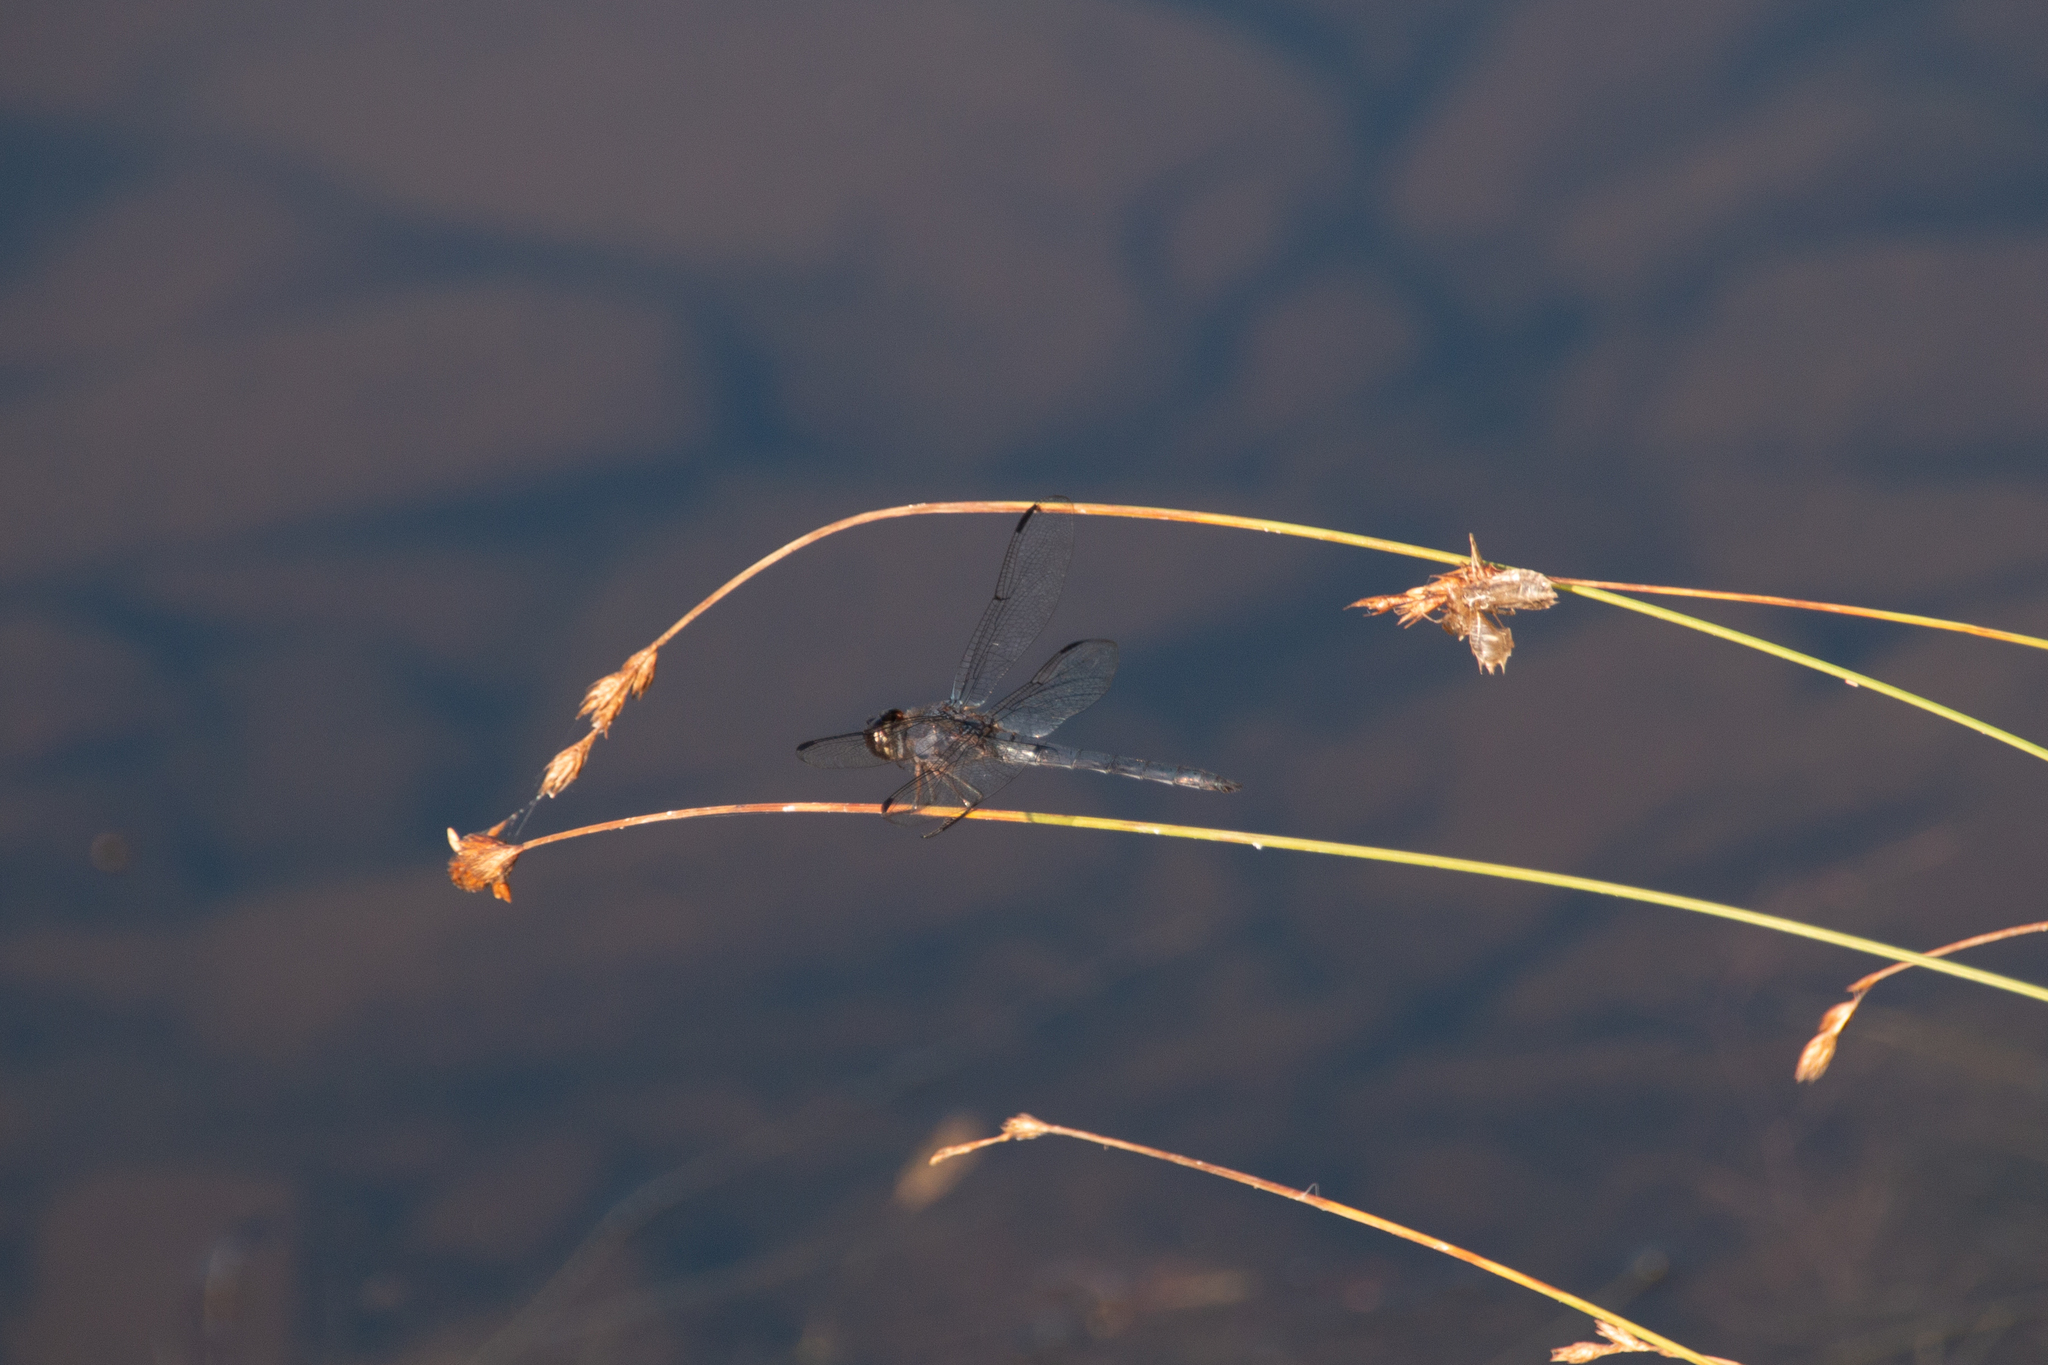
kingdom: Animalia
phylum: Arthropoda
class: Insecta
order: Odonata
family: Libellulidae
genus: Libellula
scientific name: Libellula incesta
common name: Slaty skimmer
